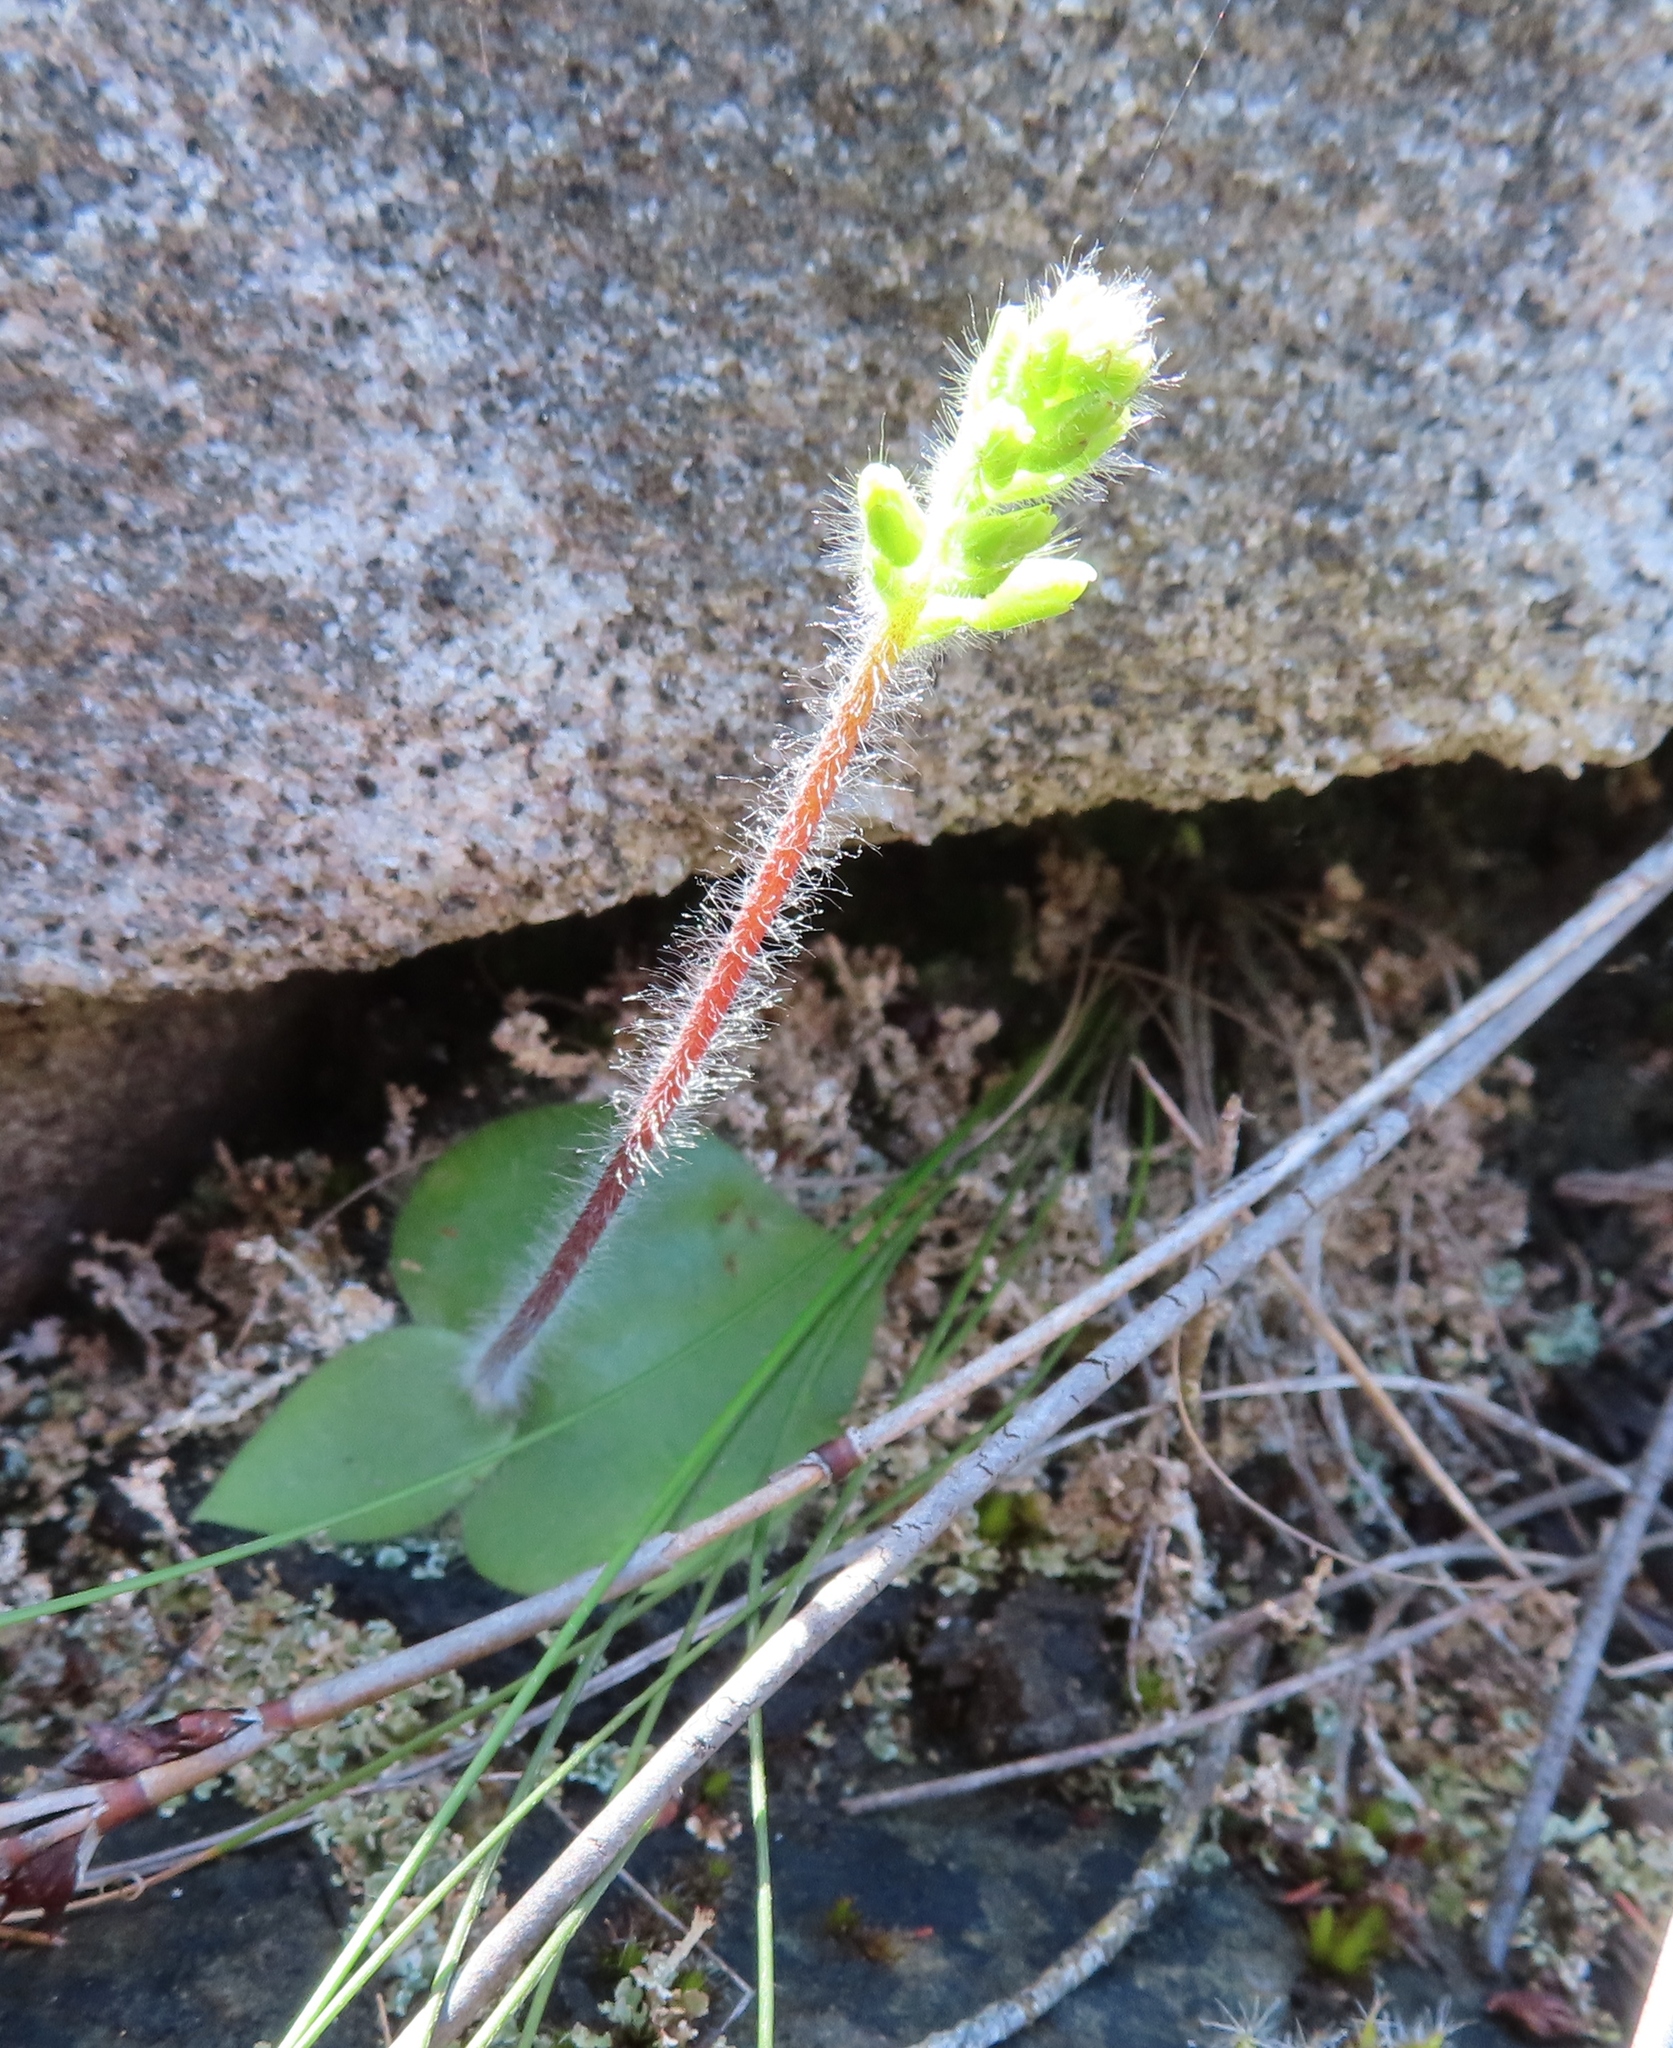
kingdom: Plantae
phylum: Tracheophyta
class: Liliopsida
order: Asparagales
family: Orchidaceae
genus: Holothrix
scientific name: Holothrix villosa
